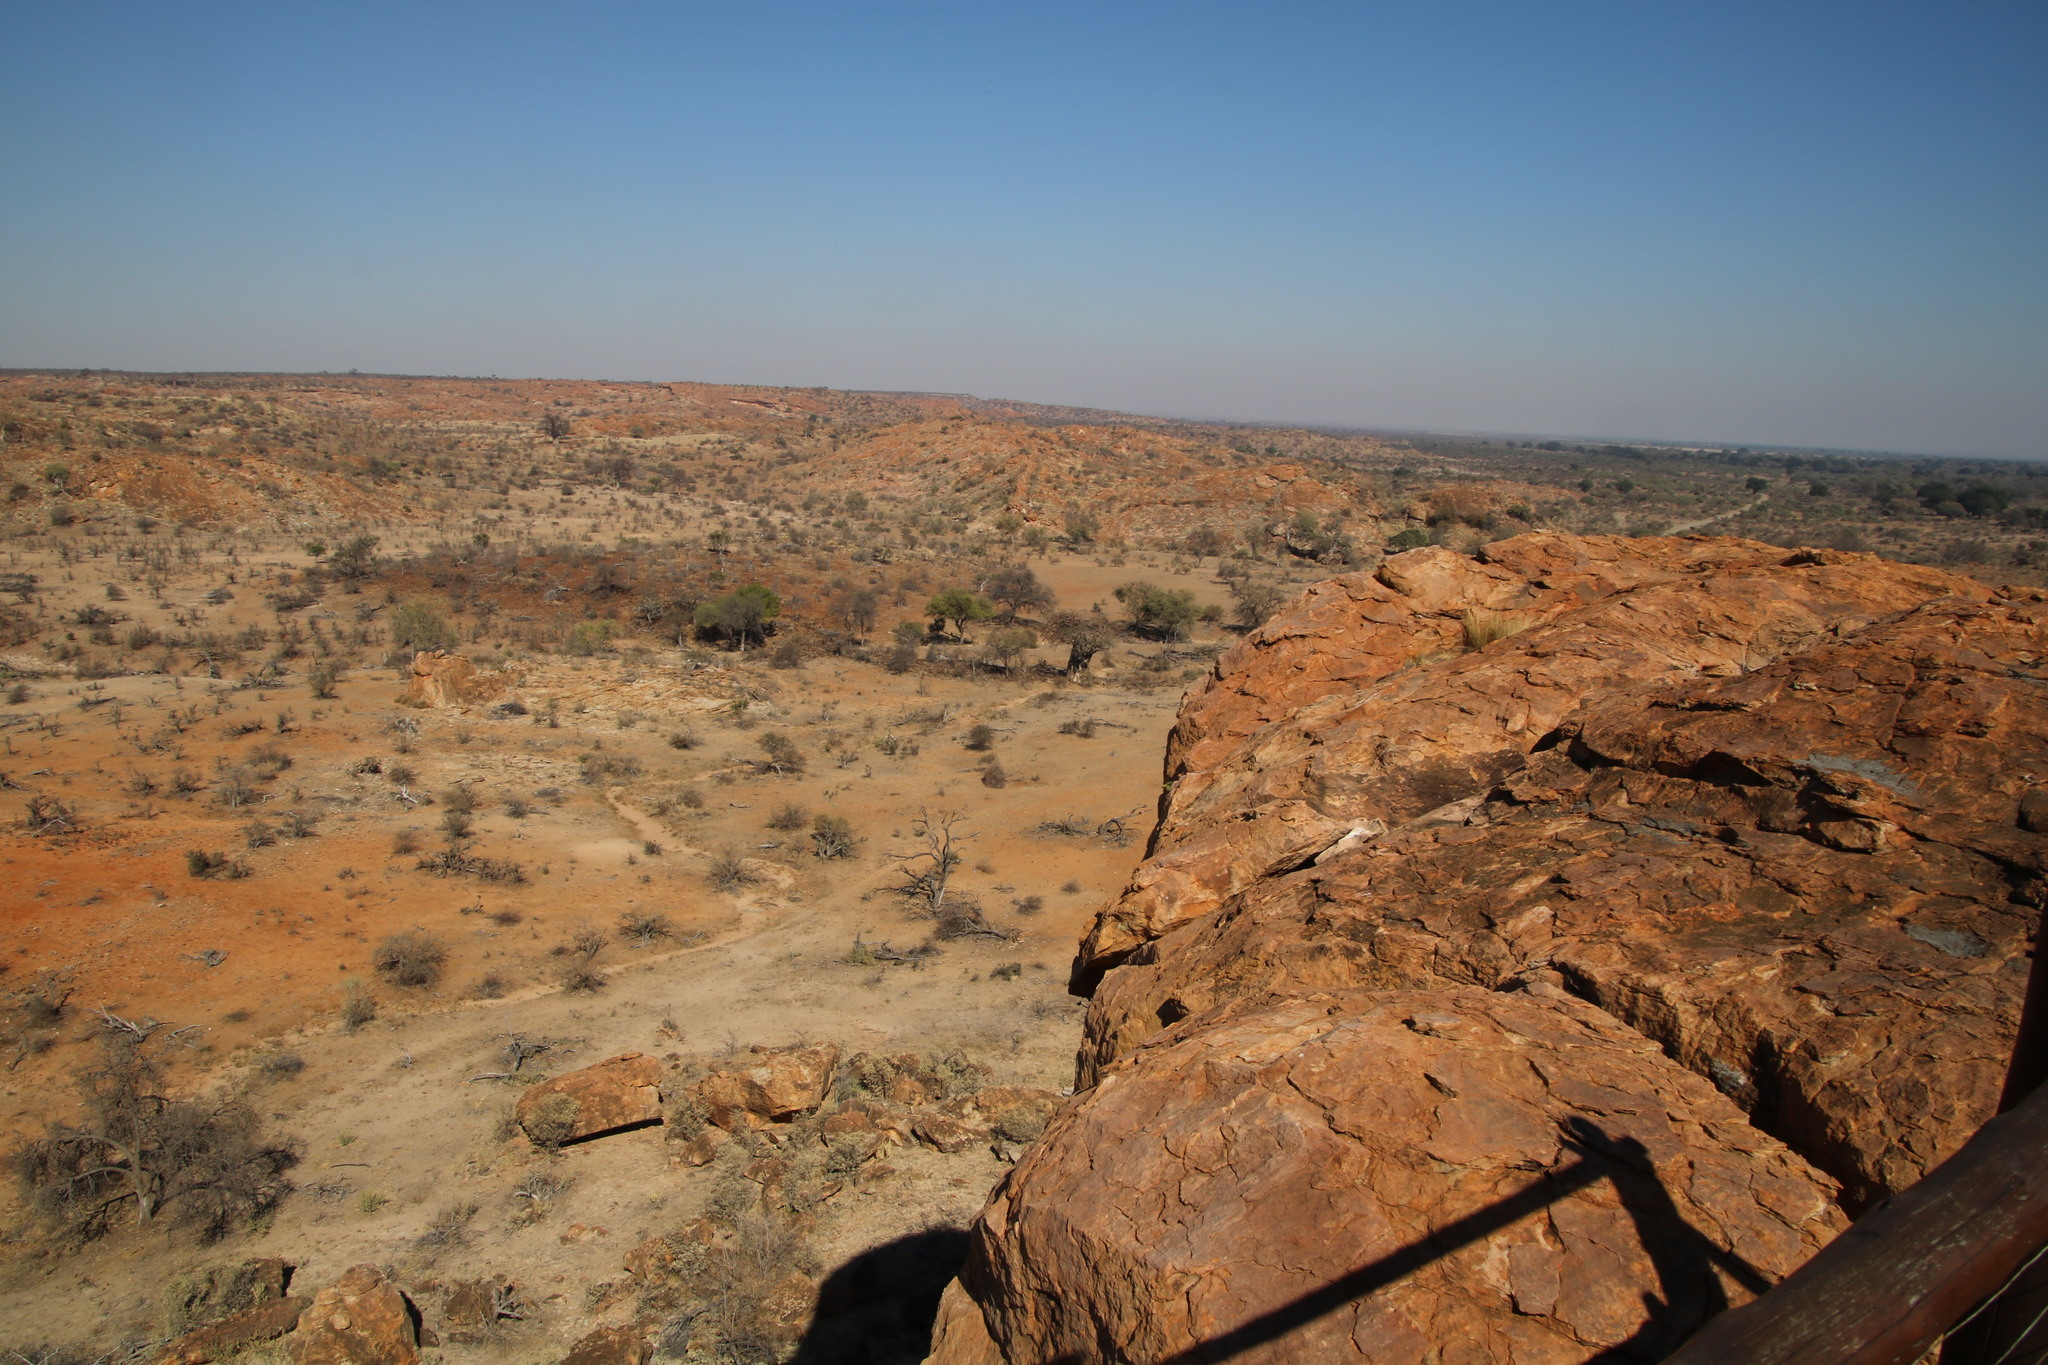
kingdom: Plantae
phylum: Tracheophyta
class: Magnoliopsida
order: Malvales
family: Malvaceae
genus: Adansonia
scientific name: Adansonia digitata
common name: Dead-rat-tree
